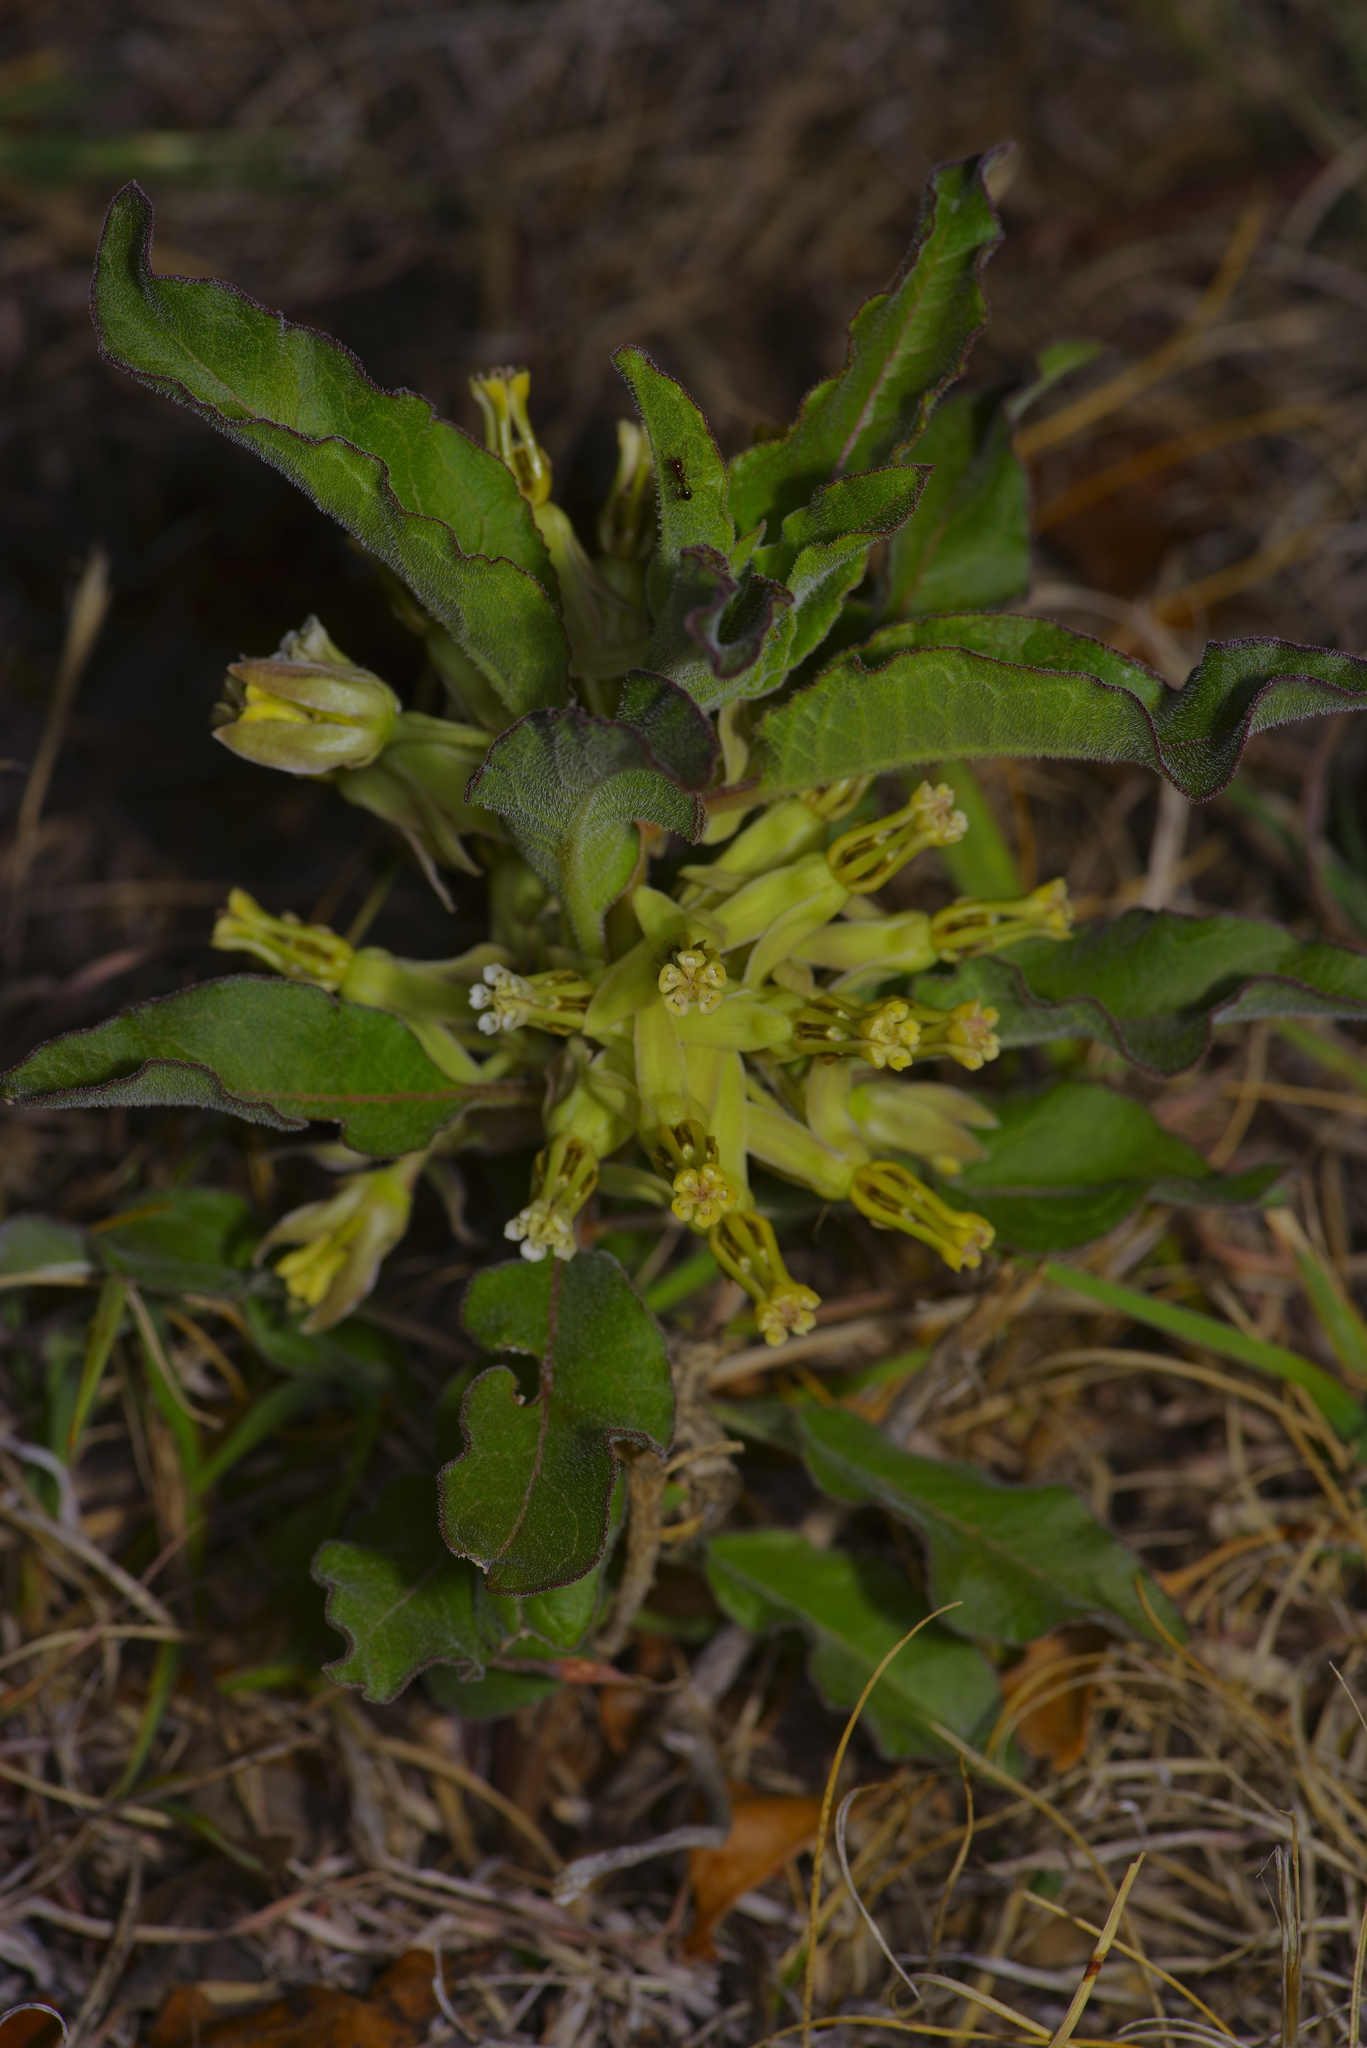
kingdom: Plantae
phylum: Tracheophyta
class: Magnoliopsida
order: Gentianales
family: Apocynaceae
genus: Asclepias
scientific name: Asclepias oenotheroides
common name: Zizotes milkweed
